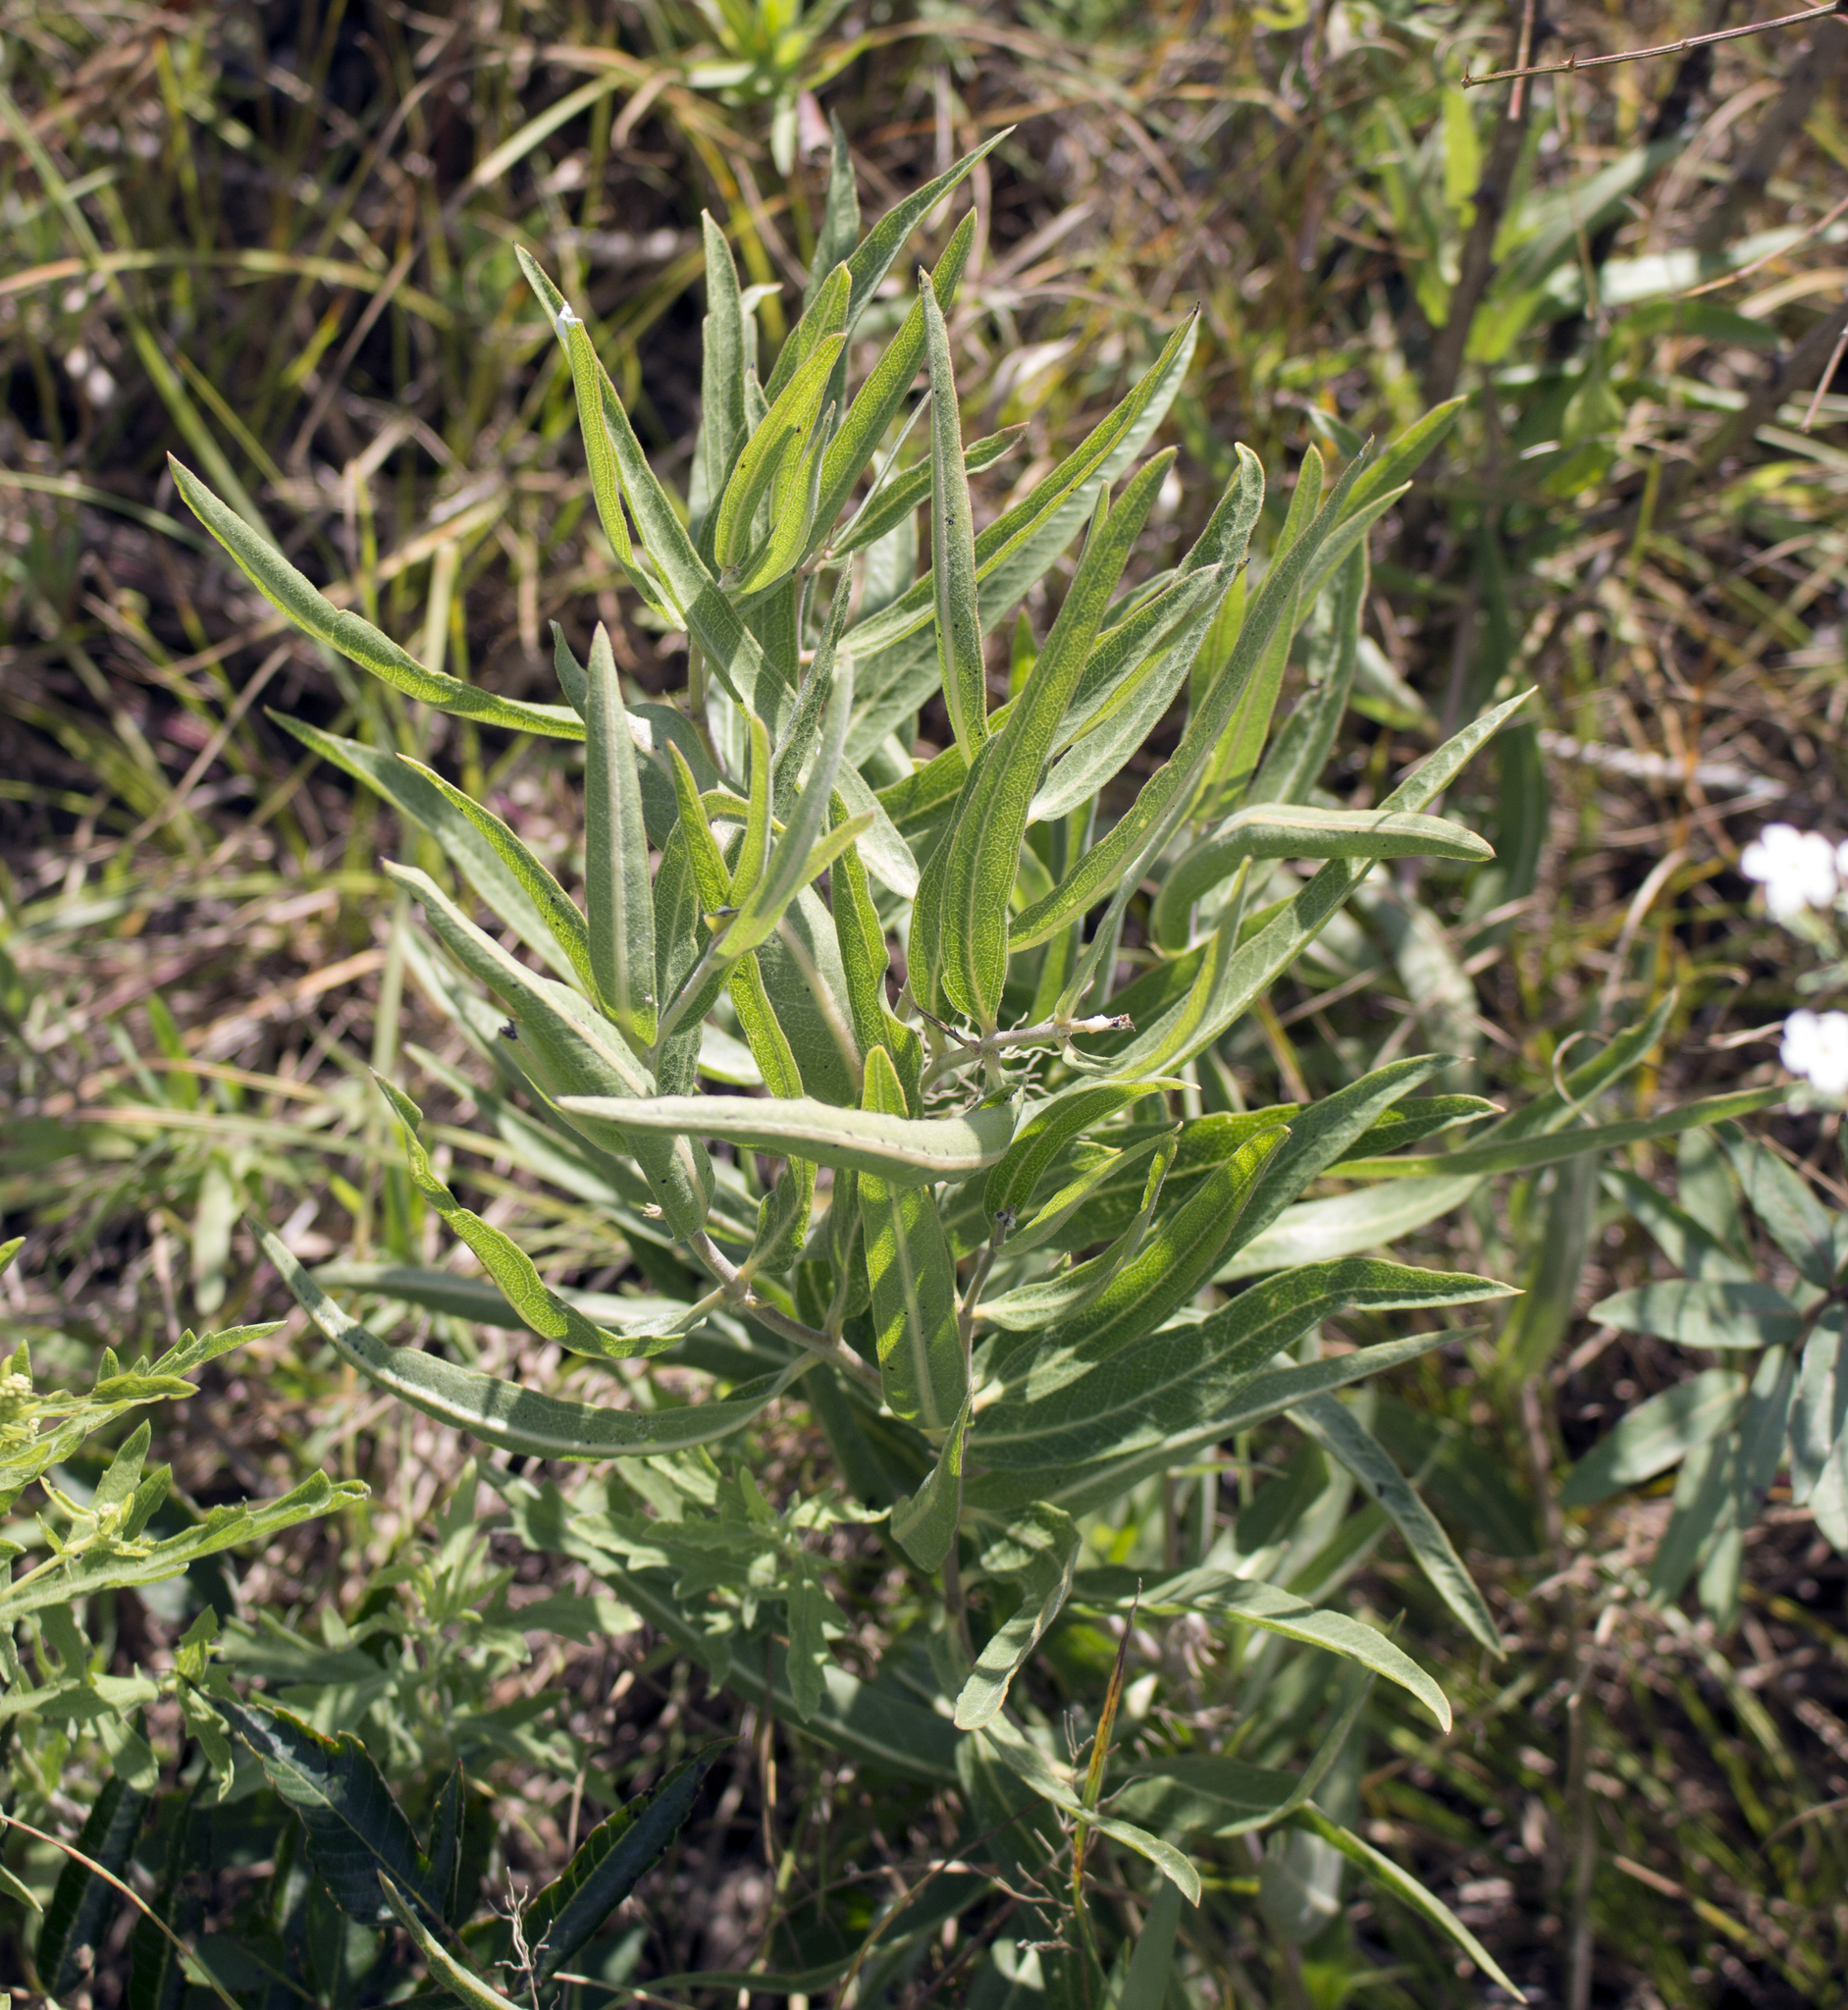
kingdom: Plantae
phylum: Tracheophyta
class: Magnoliopsida
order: Gentianales
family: Apocynaceae
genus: Asclepias
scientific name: Asclepias viridiflora
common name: Green comet milkweed
